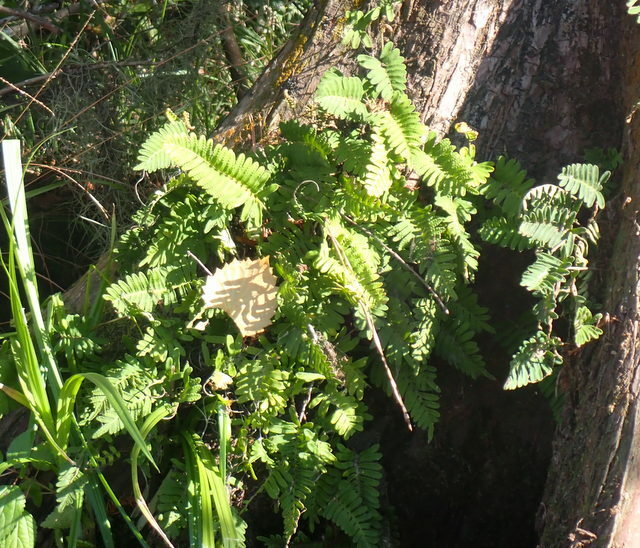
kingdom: Plantae
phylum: Tracheophyta
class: Polypodiopsida
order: Polypodiales
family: Polypodiaceae
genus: Pleopeltis
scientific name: Pleopeltis michauxiana
